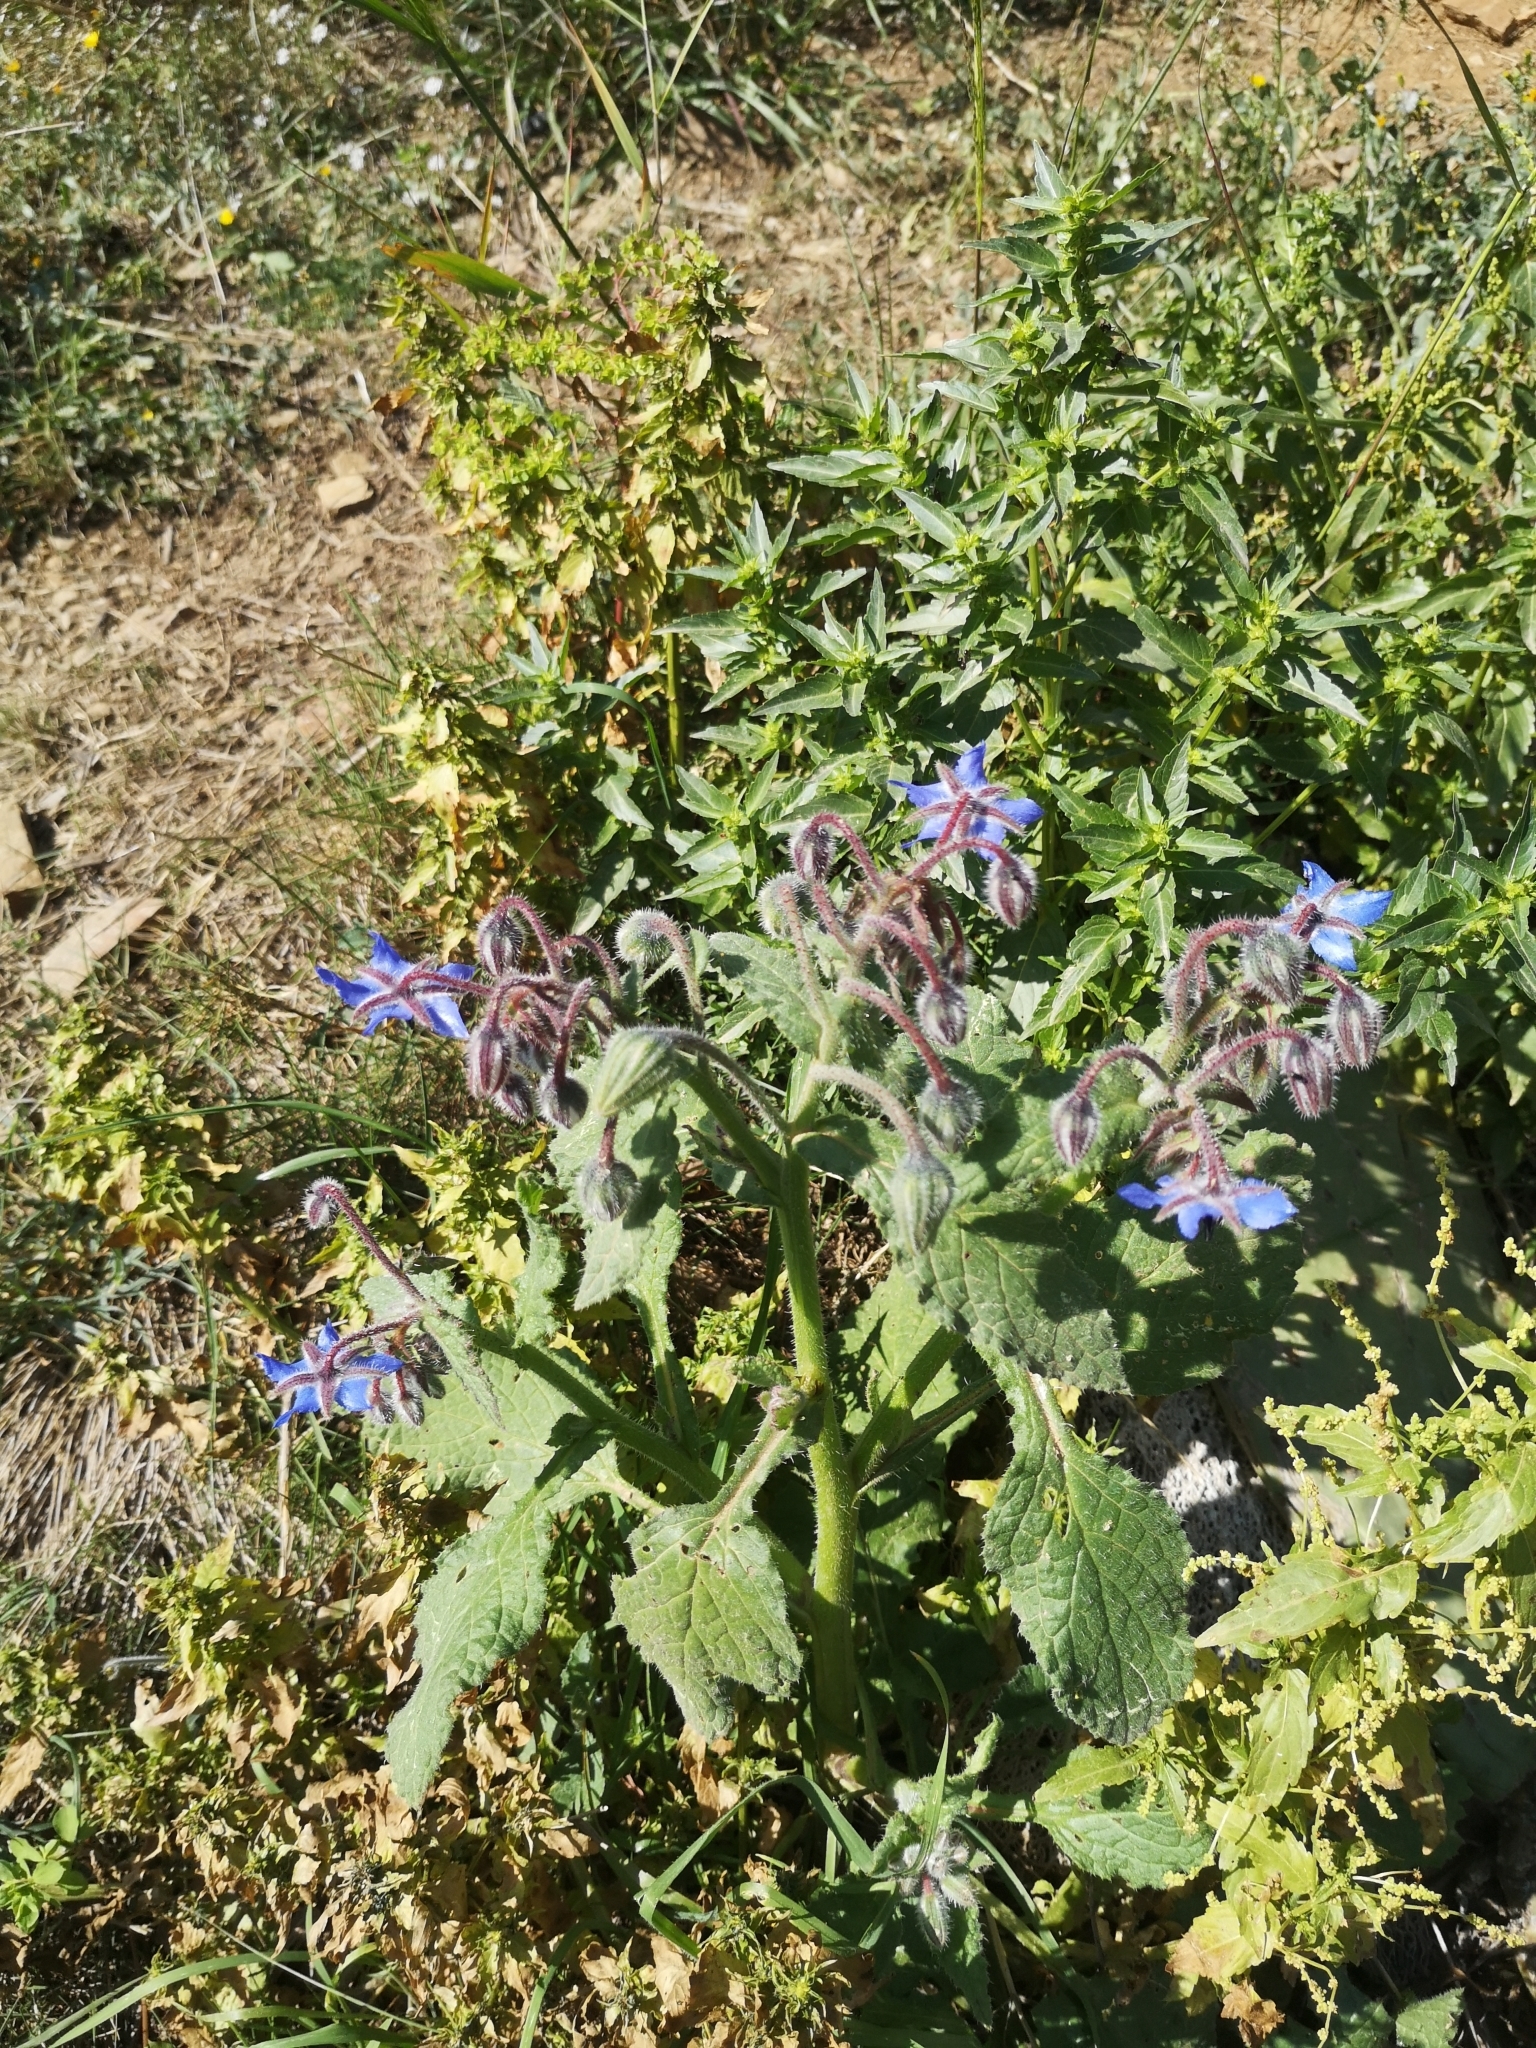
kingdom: Plantae
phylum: Tracheophyta
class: Magnoliopsida
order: Boraginales
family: Boraginaceae
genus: Borago
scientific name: Borago officinalis
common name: Borage
